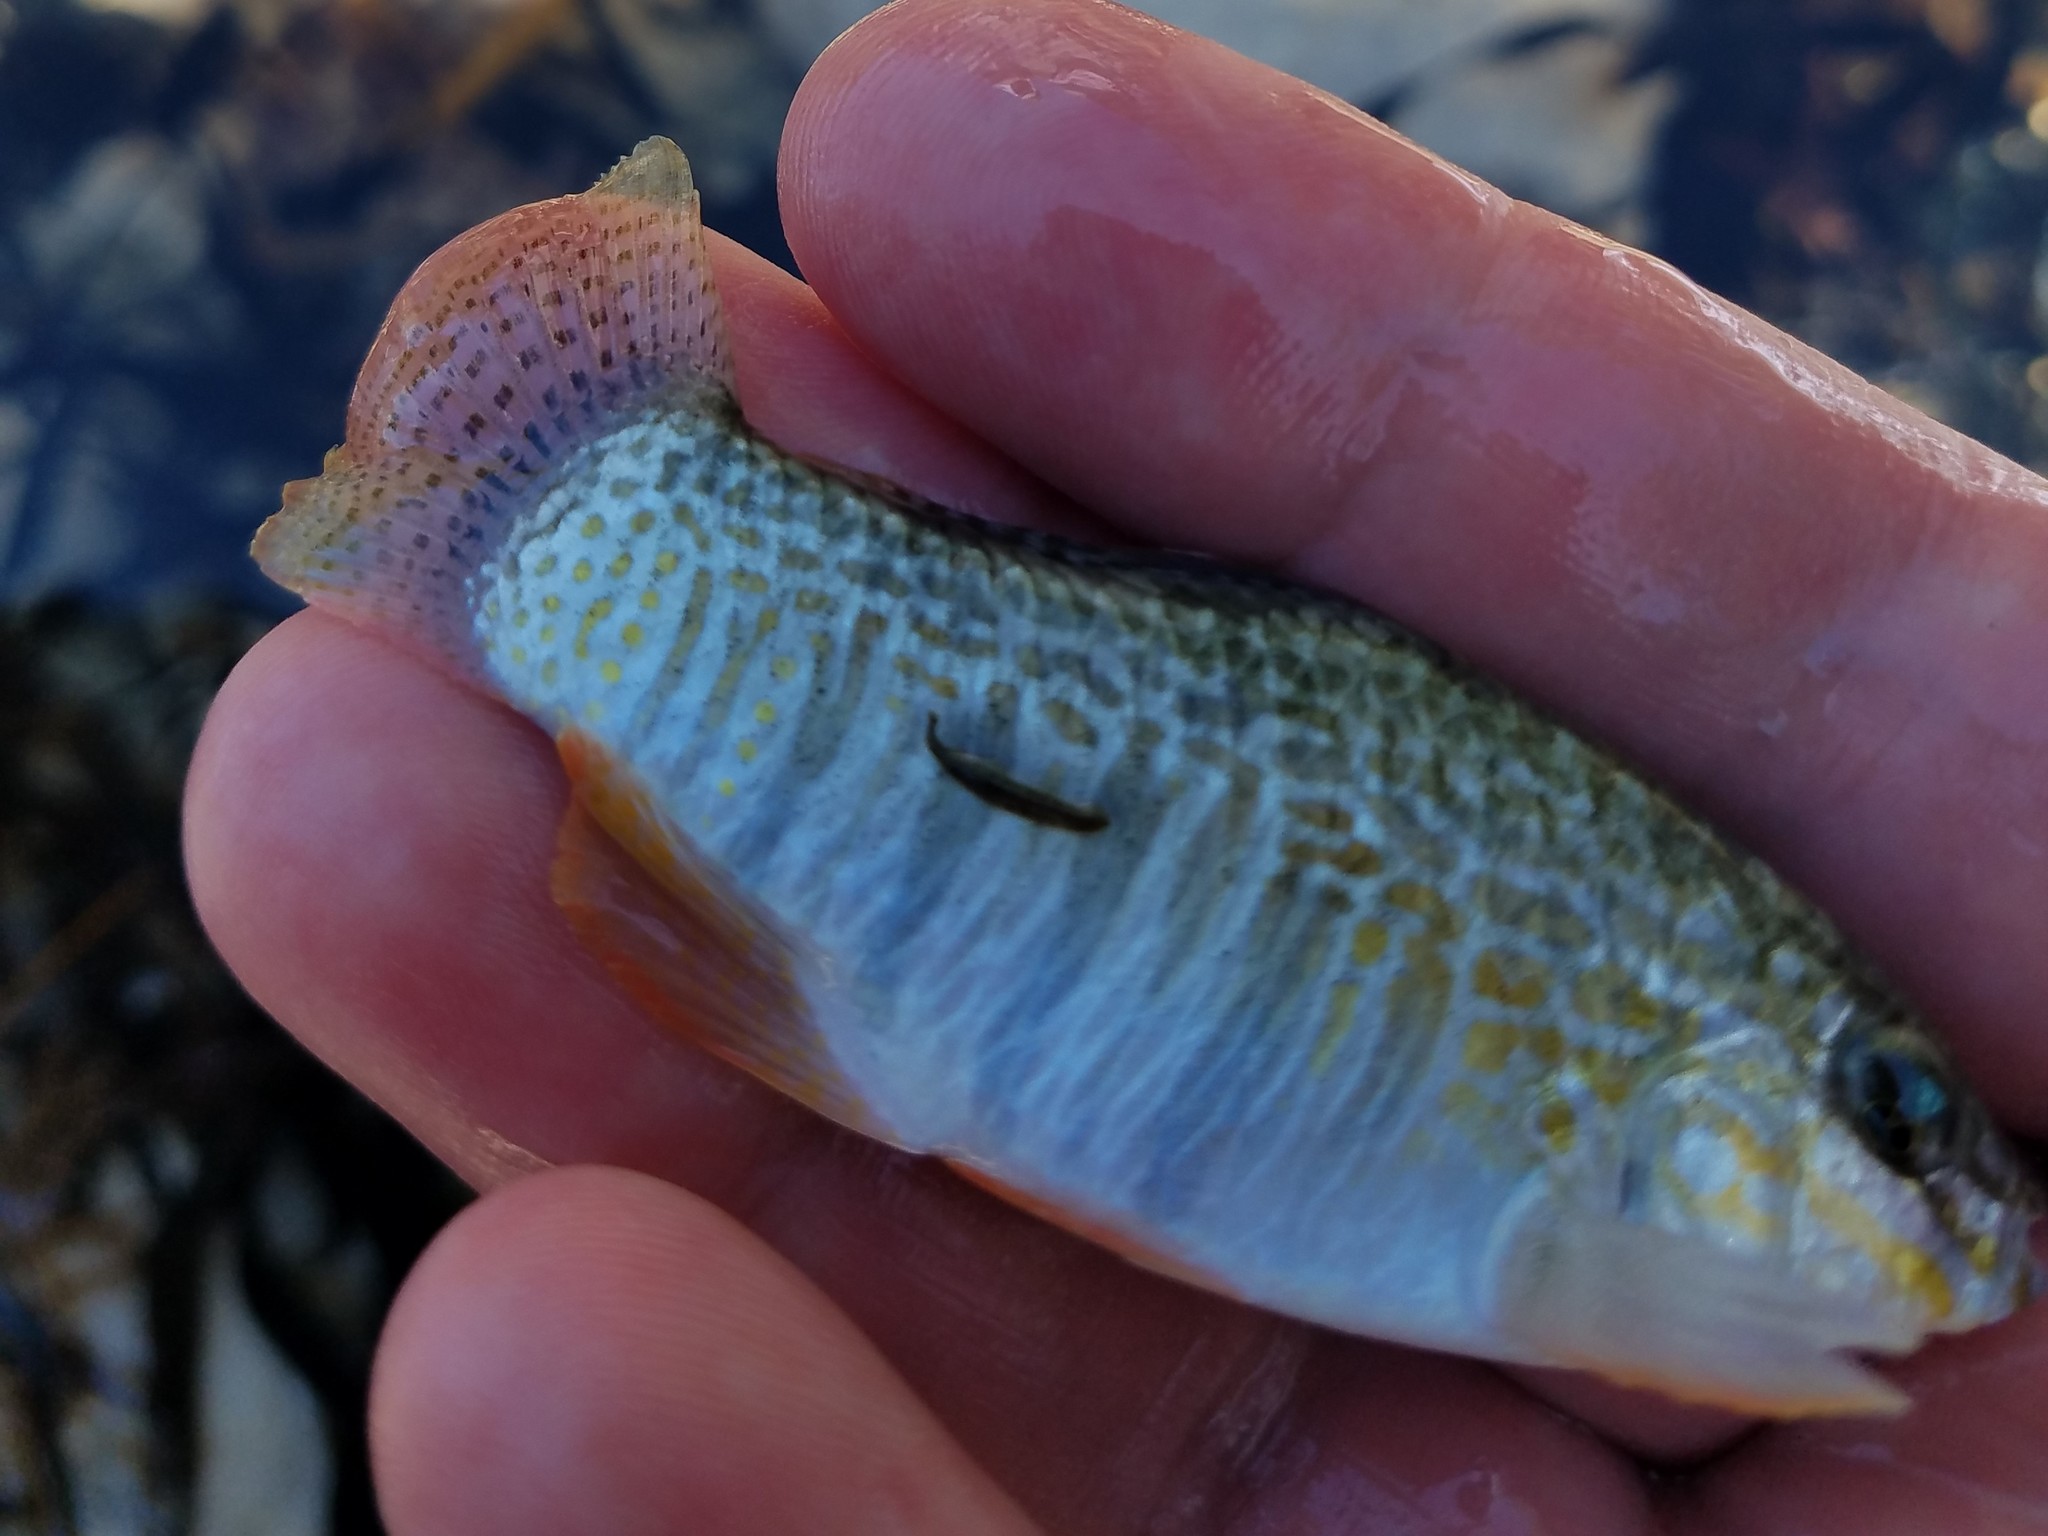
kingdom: Animalia
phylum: Chordata
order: Cyprinodontiformes
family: Cyprinodontidae
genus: Floridichthys
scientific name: Floridichthys carpio
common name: Goldspotted killifish
